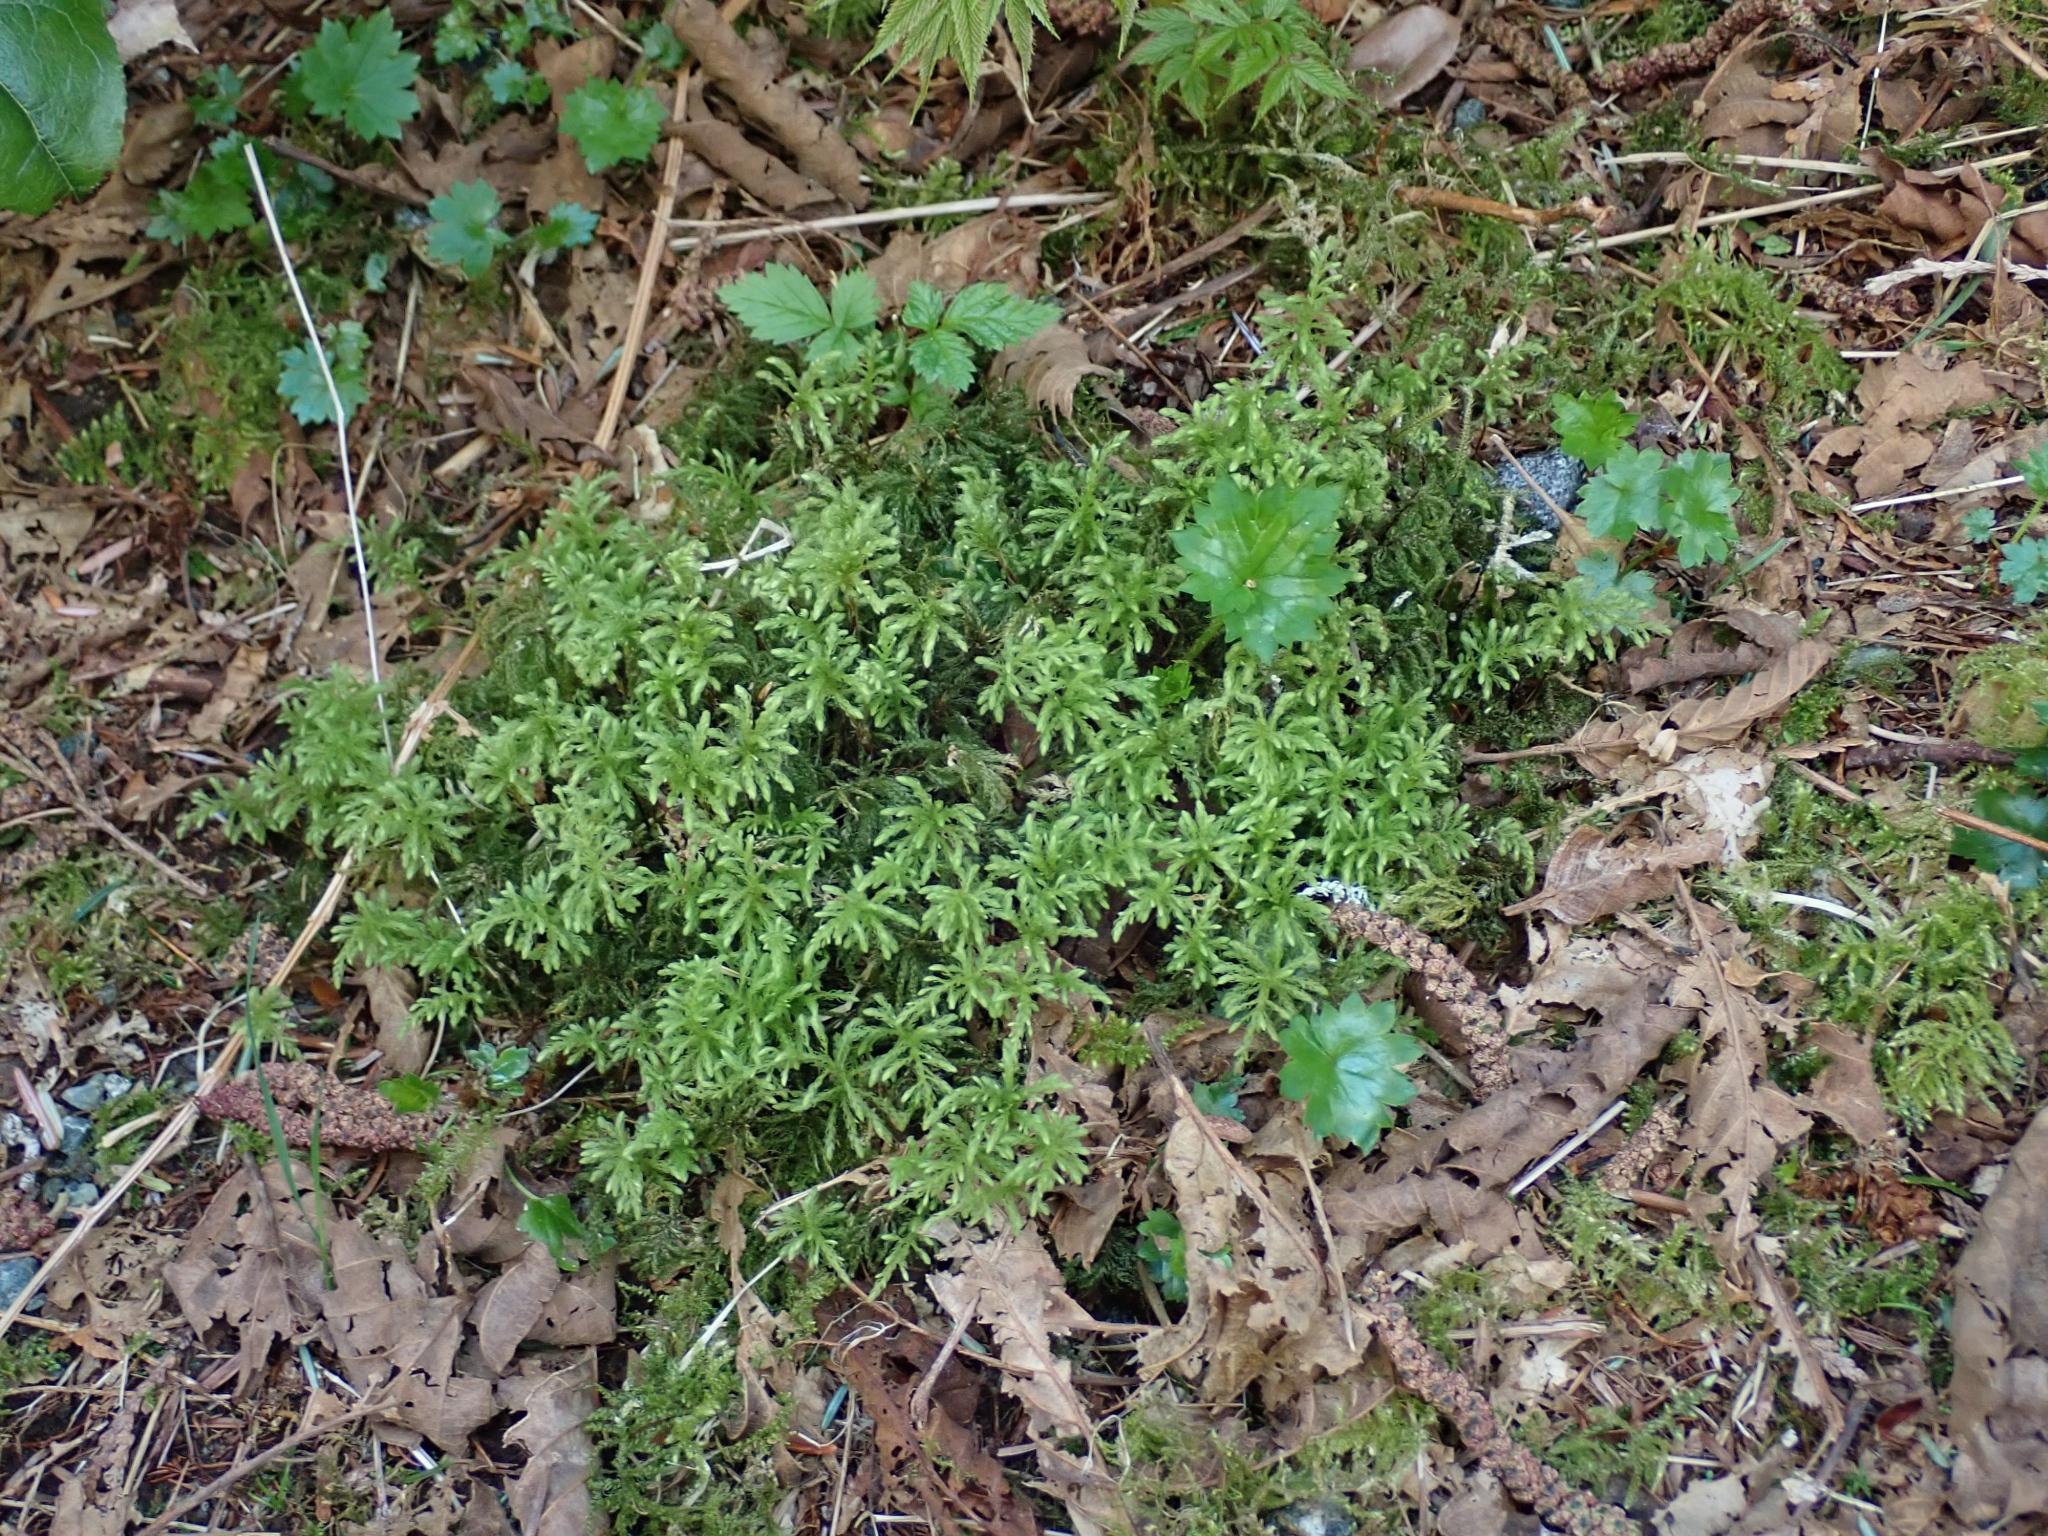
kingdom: Plantae
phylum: Bryophyta
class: Bryopsida
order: Bryales
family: Mniaceae
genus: Leucolepis
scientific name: Leucolepis acanthoneura
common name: Leucolepis umbrella moss
